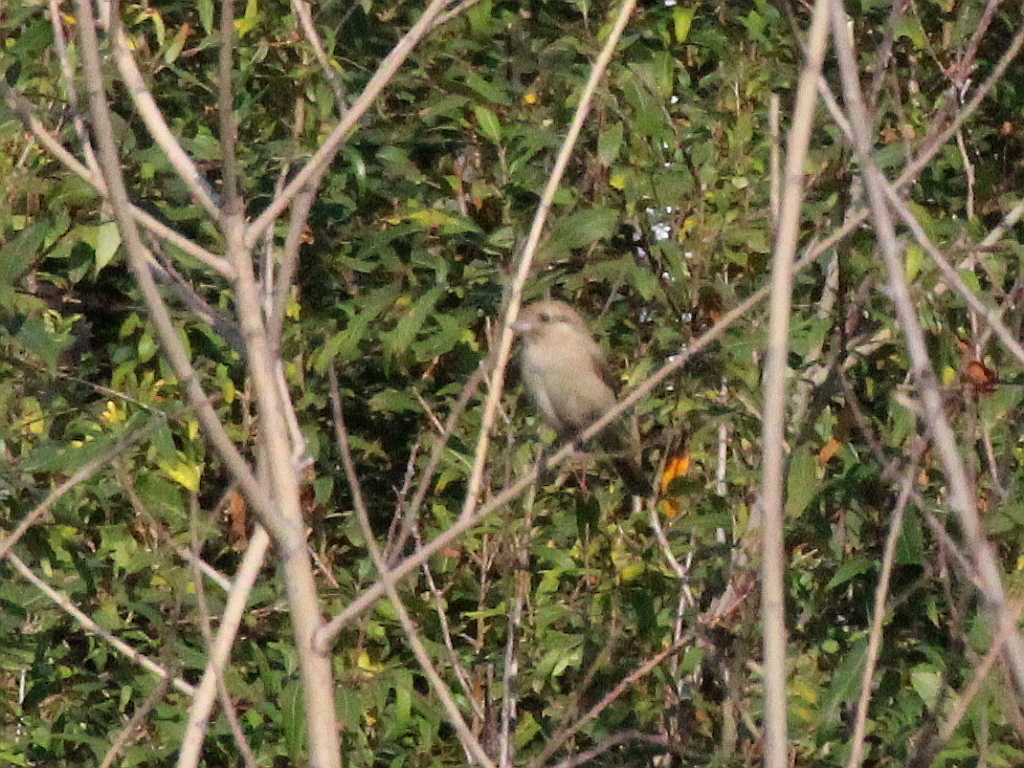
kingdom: Animalia
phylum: Chordata
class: Aves
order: Passeriformes
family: Laniidae
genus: Lanius
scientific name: Lanius collurio
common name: Red-backed shrike
